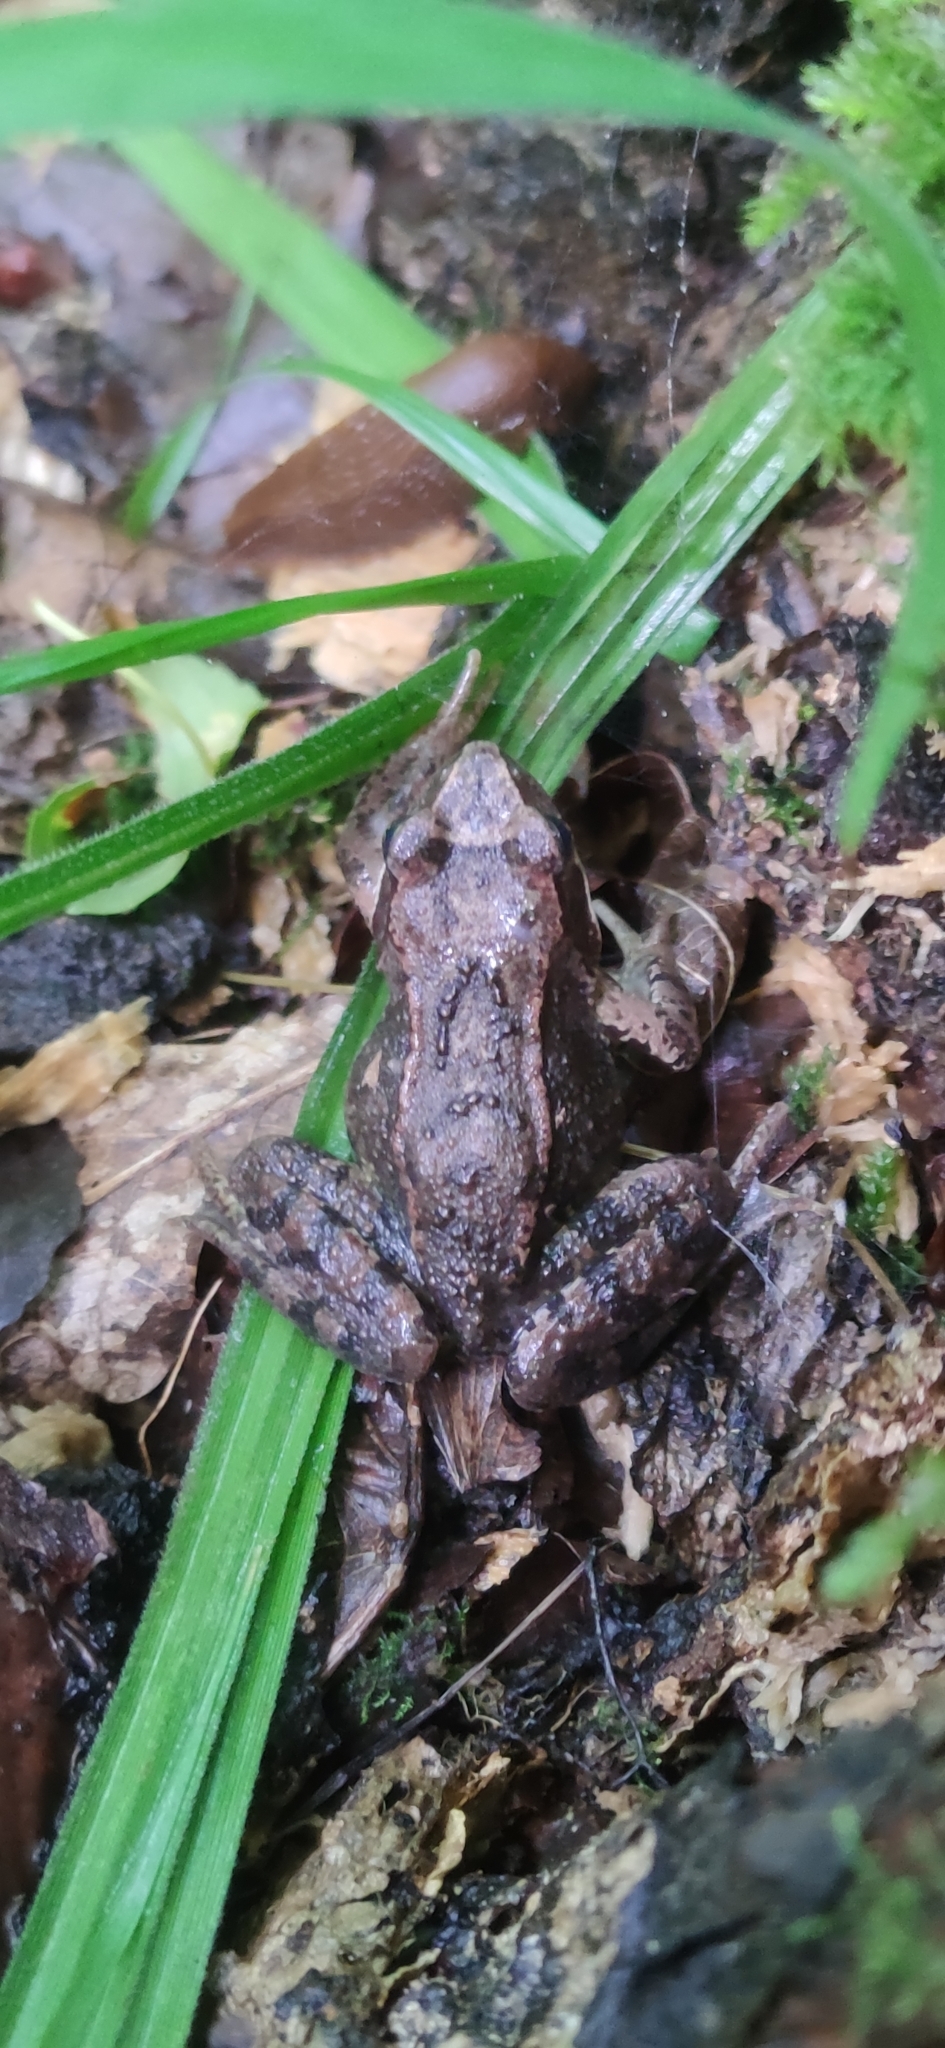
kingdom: Animalia
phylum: Chordata
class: Amphibia
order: Anura
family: Ranidae
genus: Rana
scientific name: Rana temporaria
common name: Common frog
